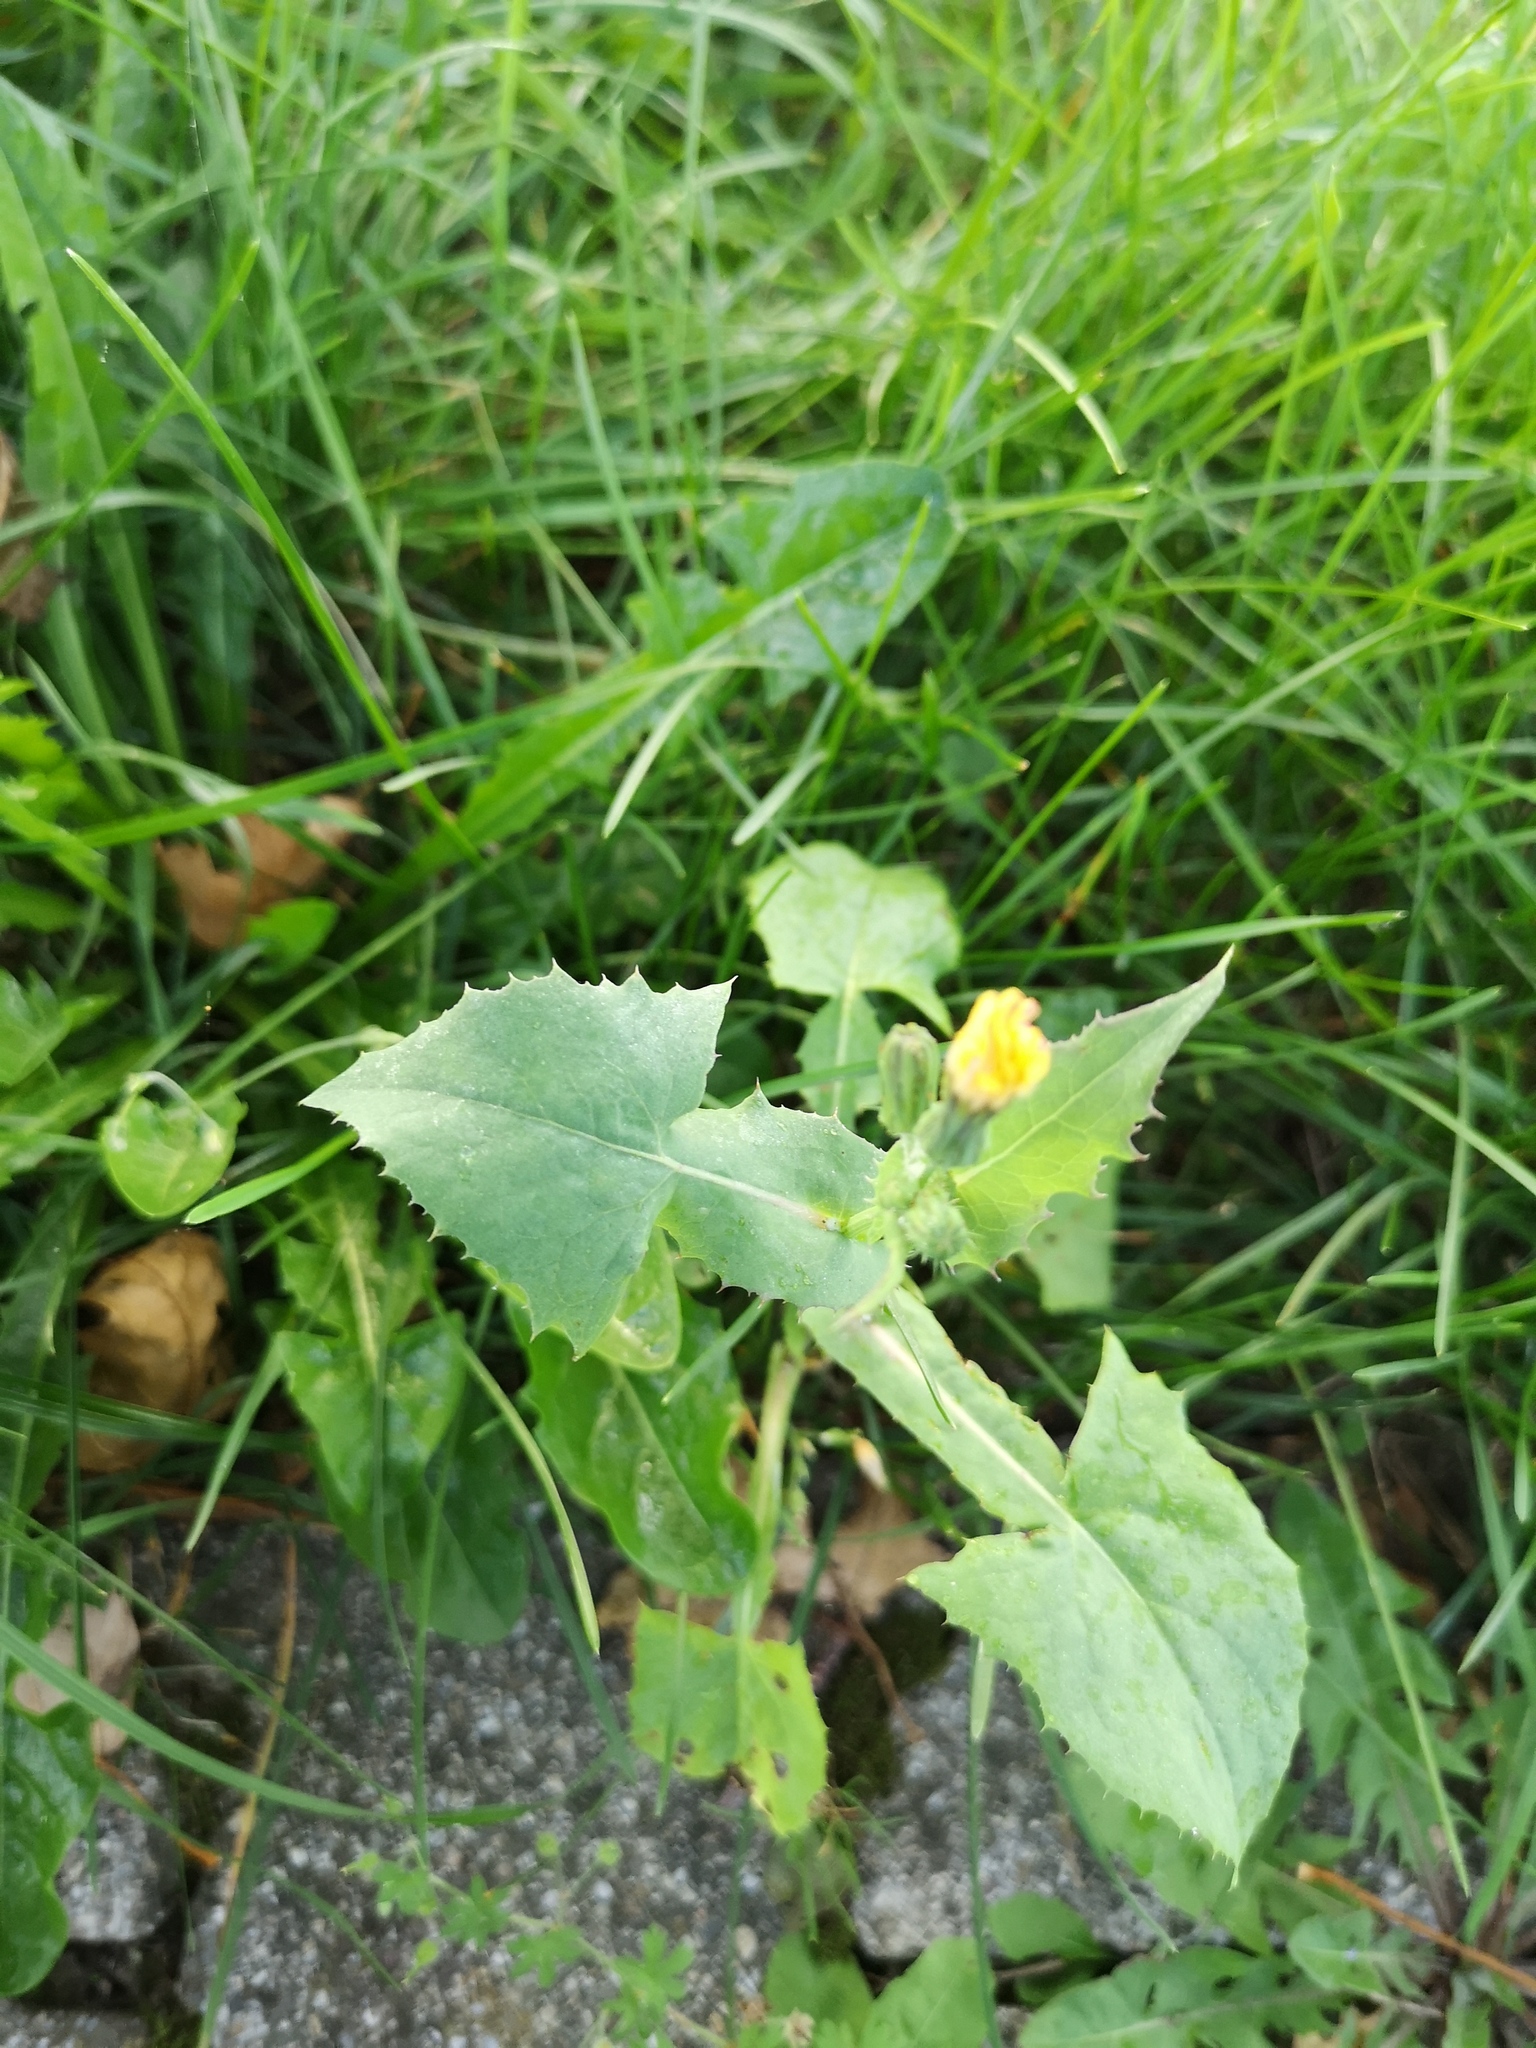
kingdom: Plantae
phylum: Tracheophyta
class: Magnoliopsida
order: Asterales
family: Asteraceae
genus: Sonchus
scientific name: Sonchus oleraceus
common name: Common sowthistle
